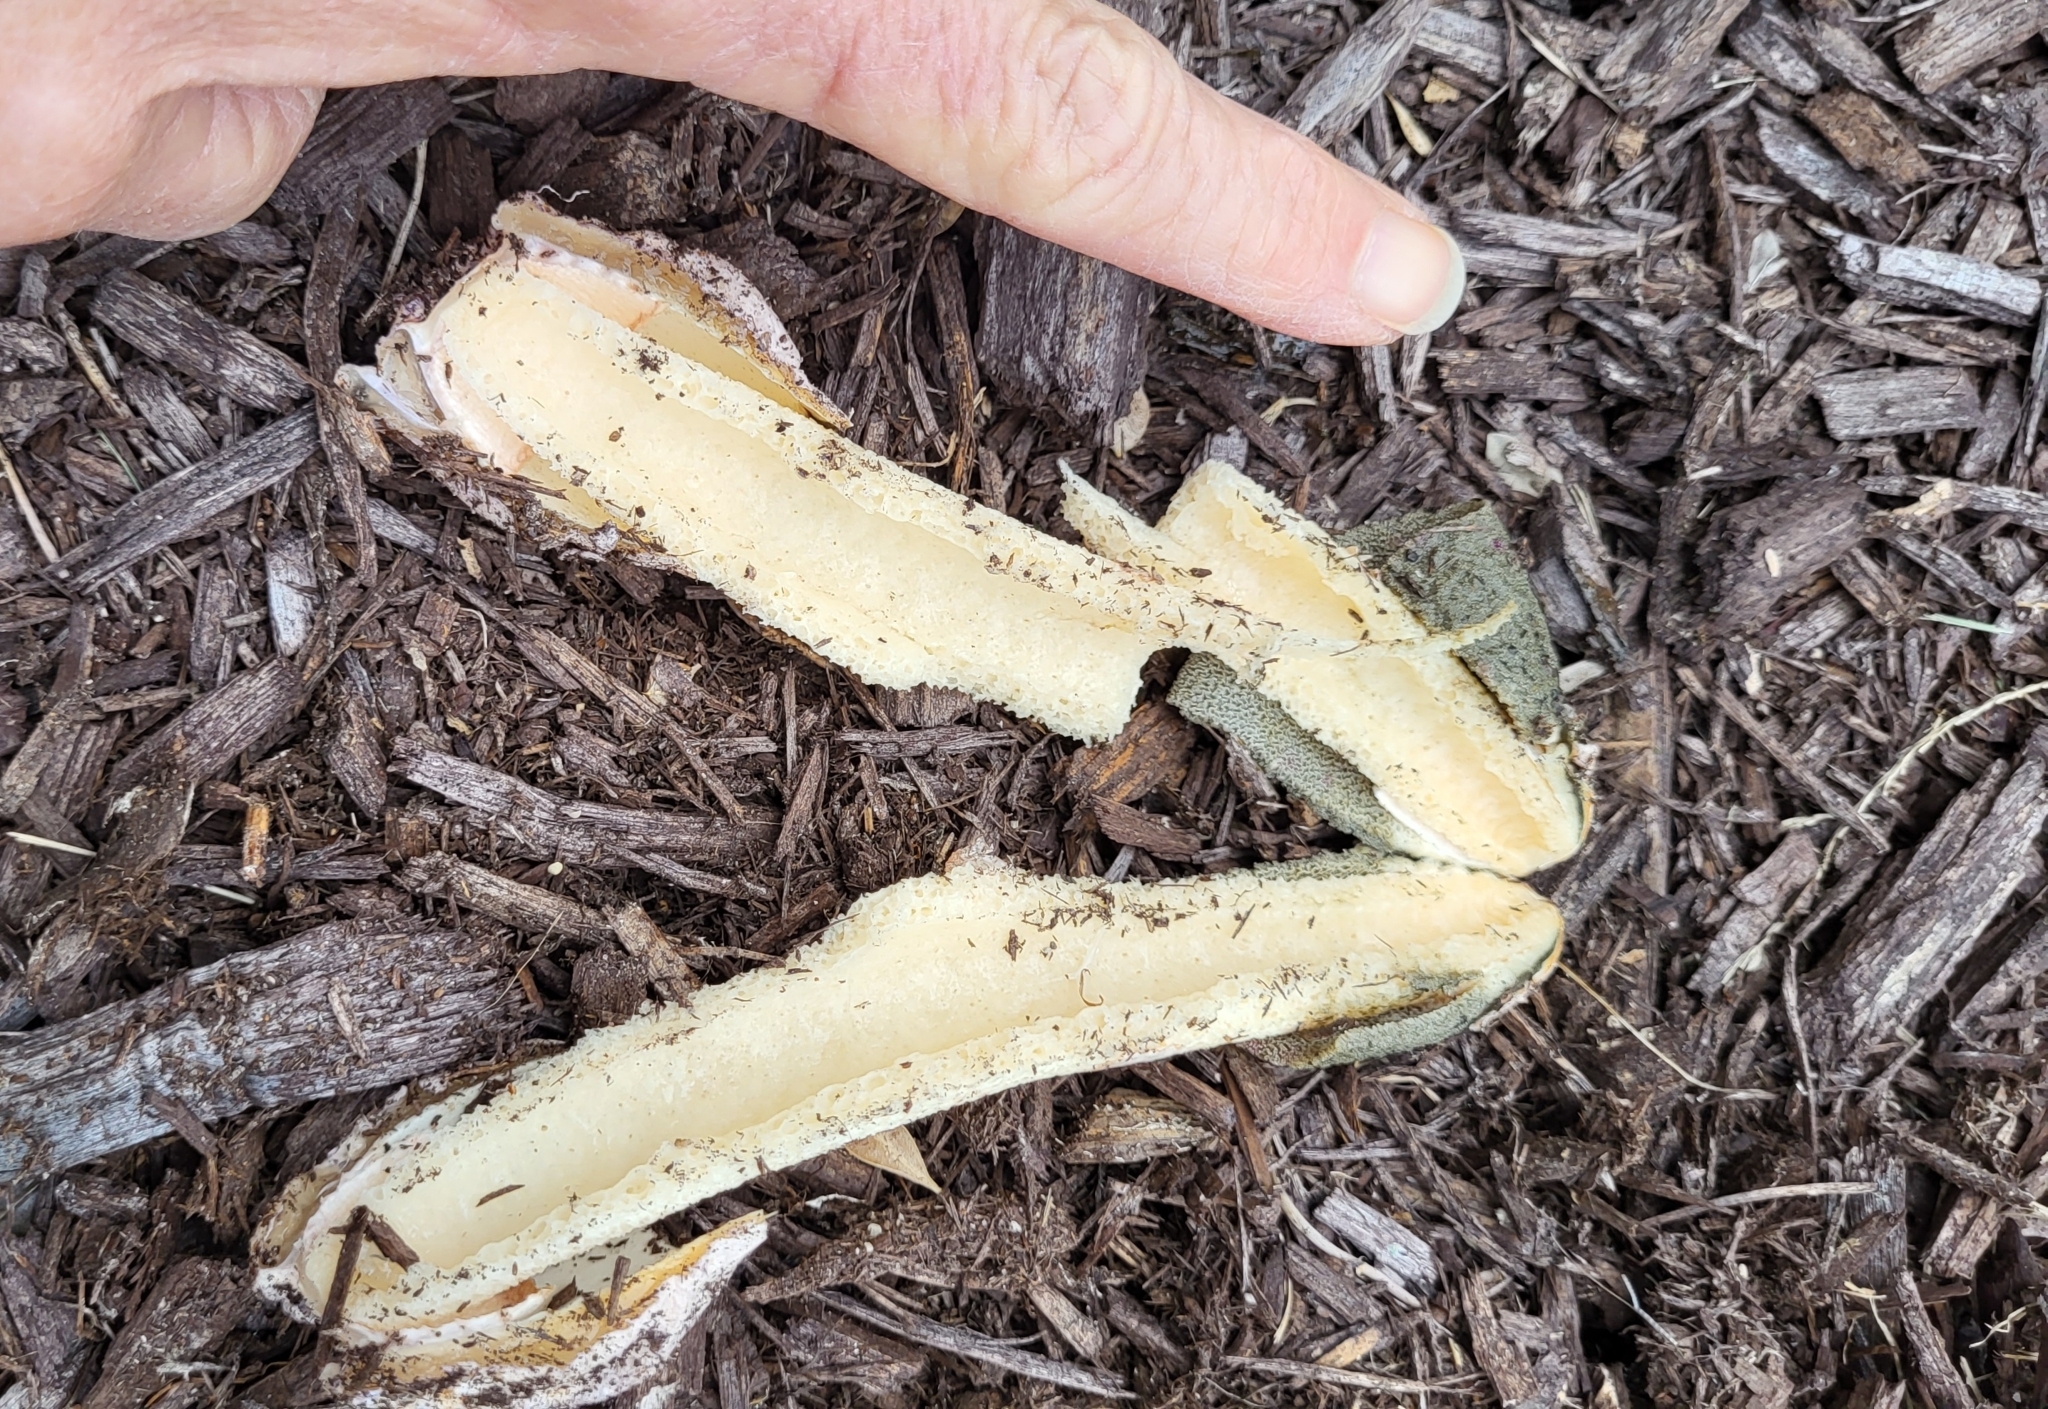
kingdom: Fungi
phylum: Basidiomycota
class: Agaricomycetes
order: Phallales
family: Phallaceae
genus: Phallus
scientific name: Phallus ravenelii
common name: Ravenel's stinkhorn
